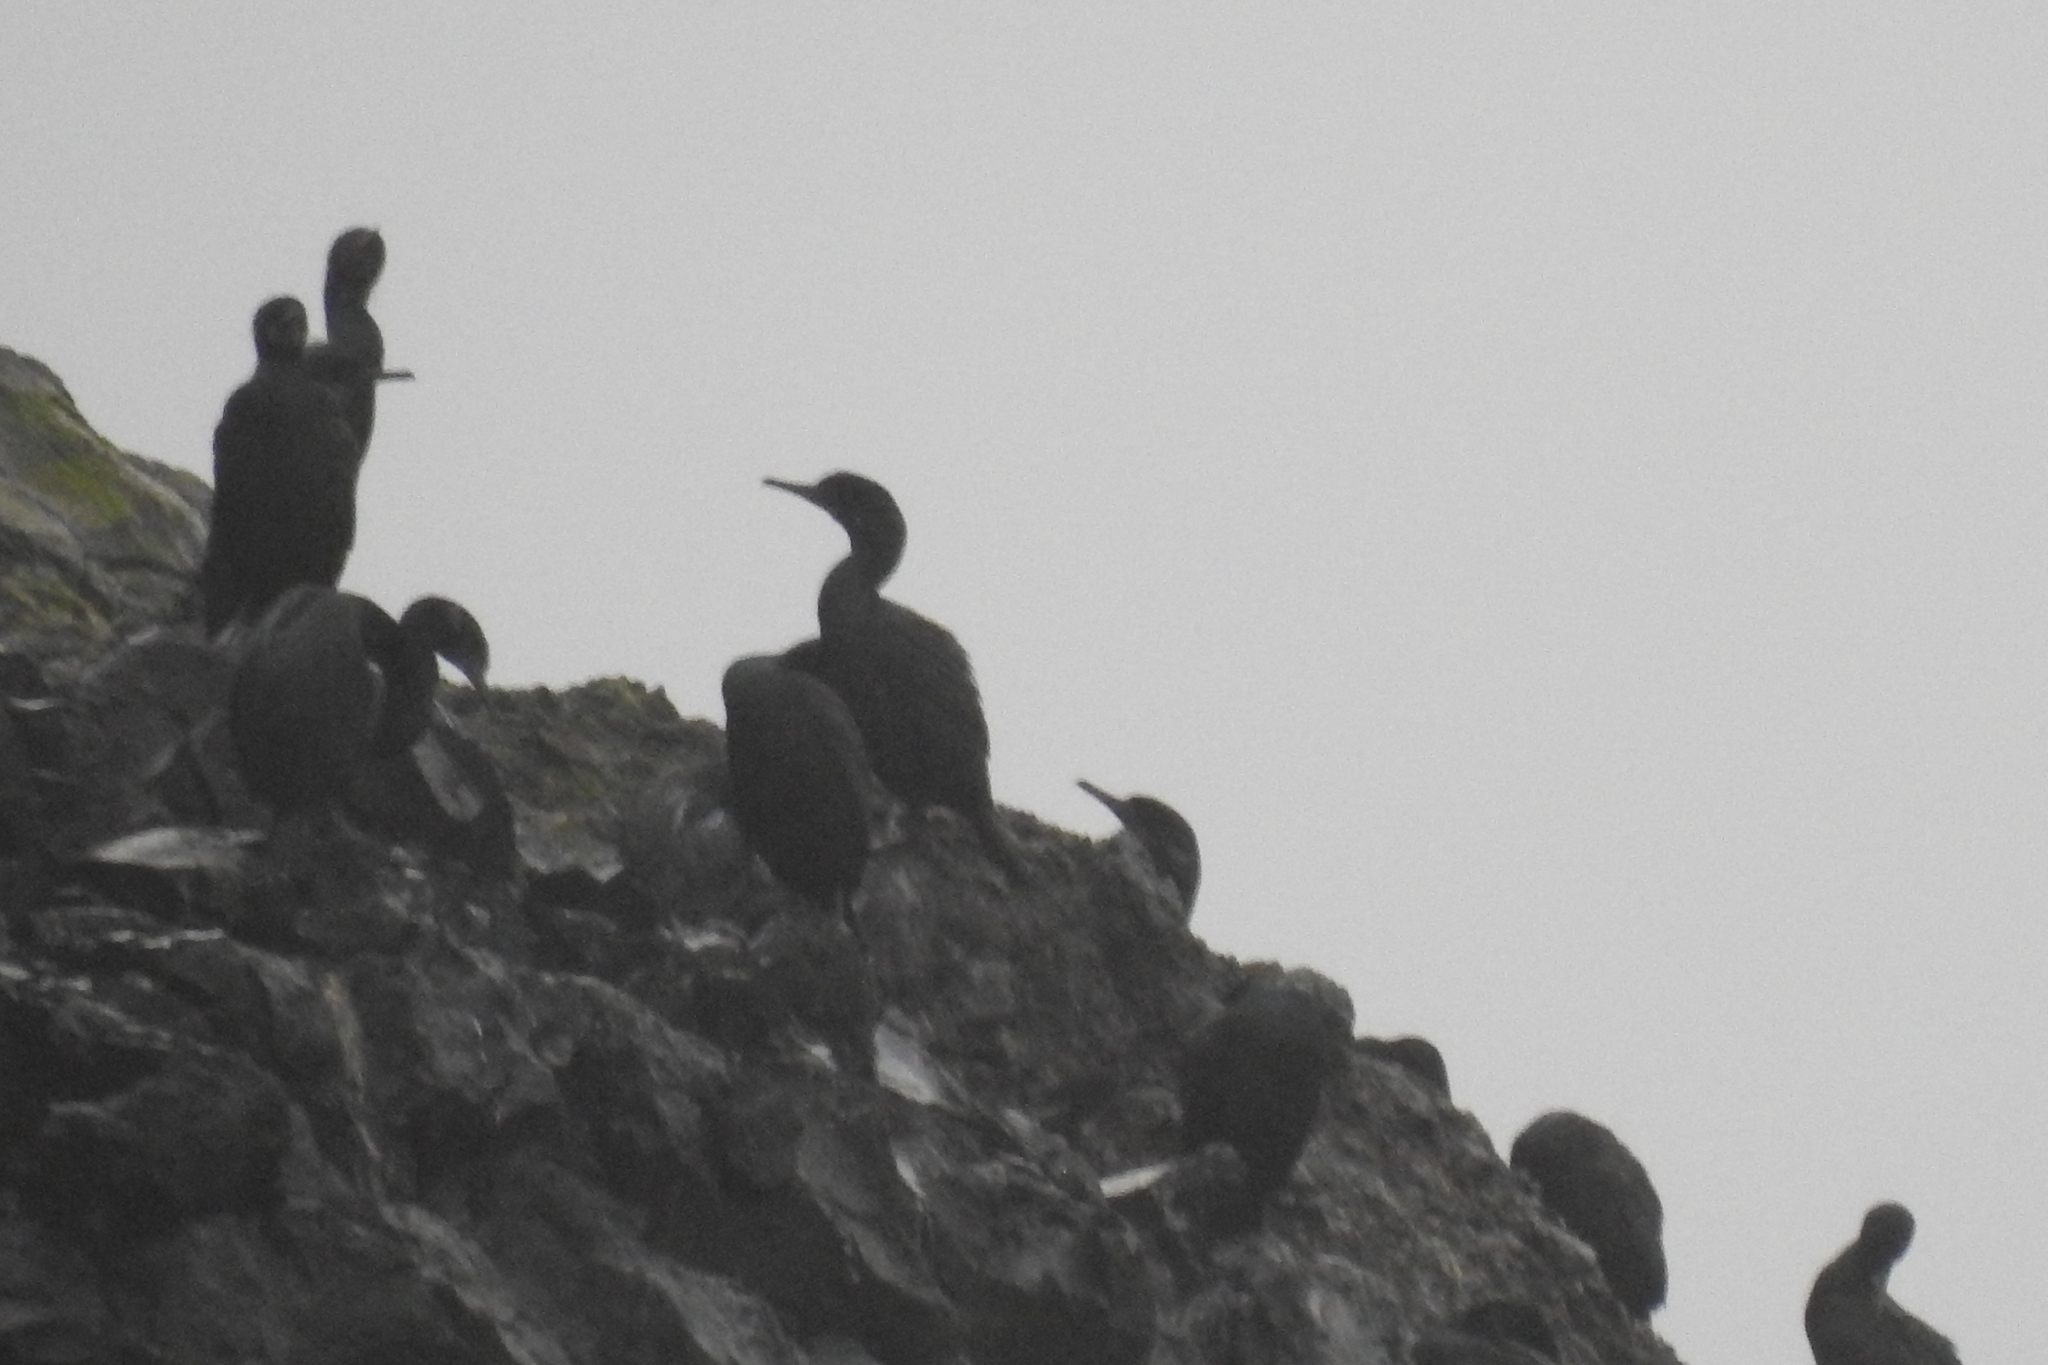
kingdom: Animalia
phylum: Chordata
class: Aves
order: Suliformes
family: Phalacrocoracidae
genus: Phalacrocorax
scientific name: Phalacrocorax pelagicus
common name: Pelagic cormorant
